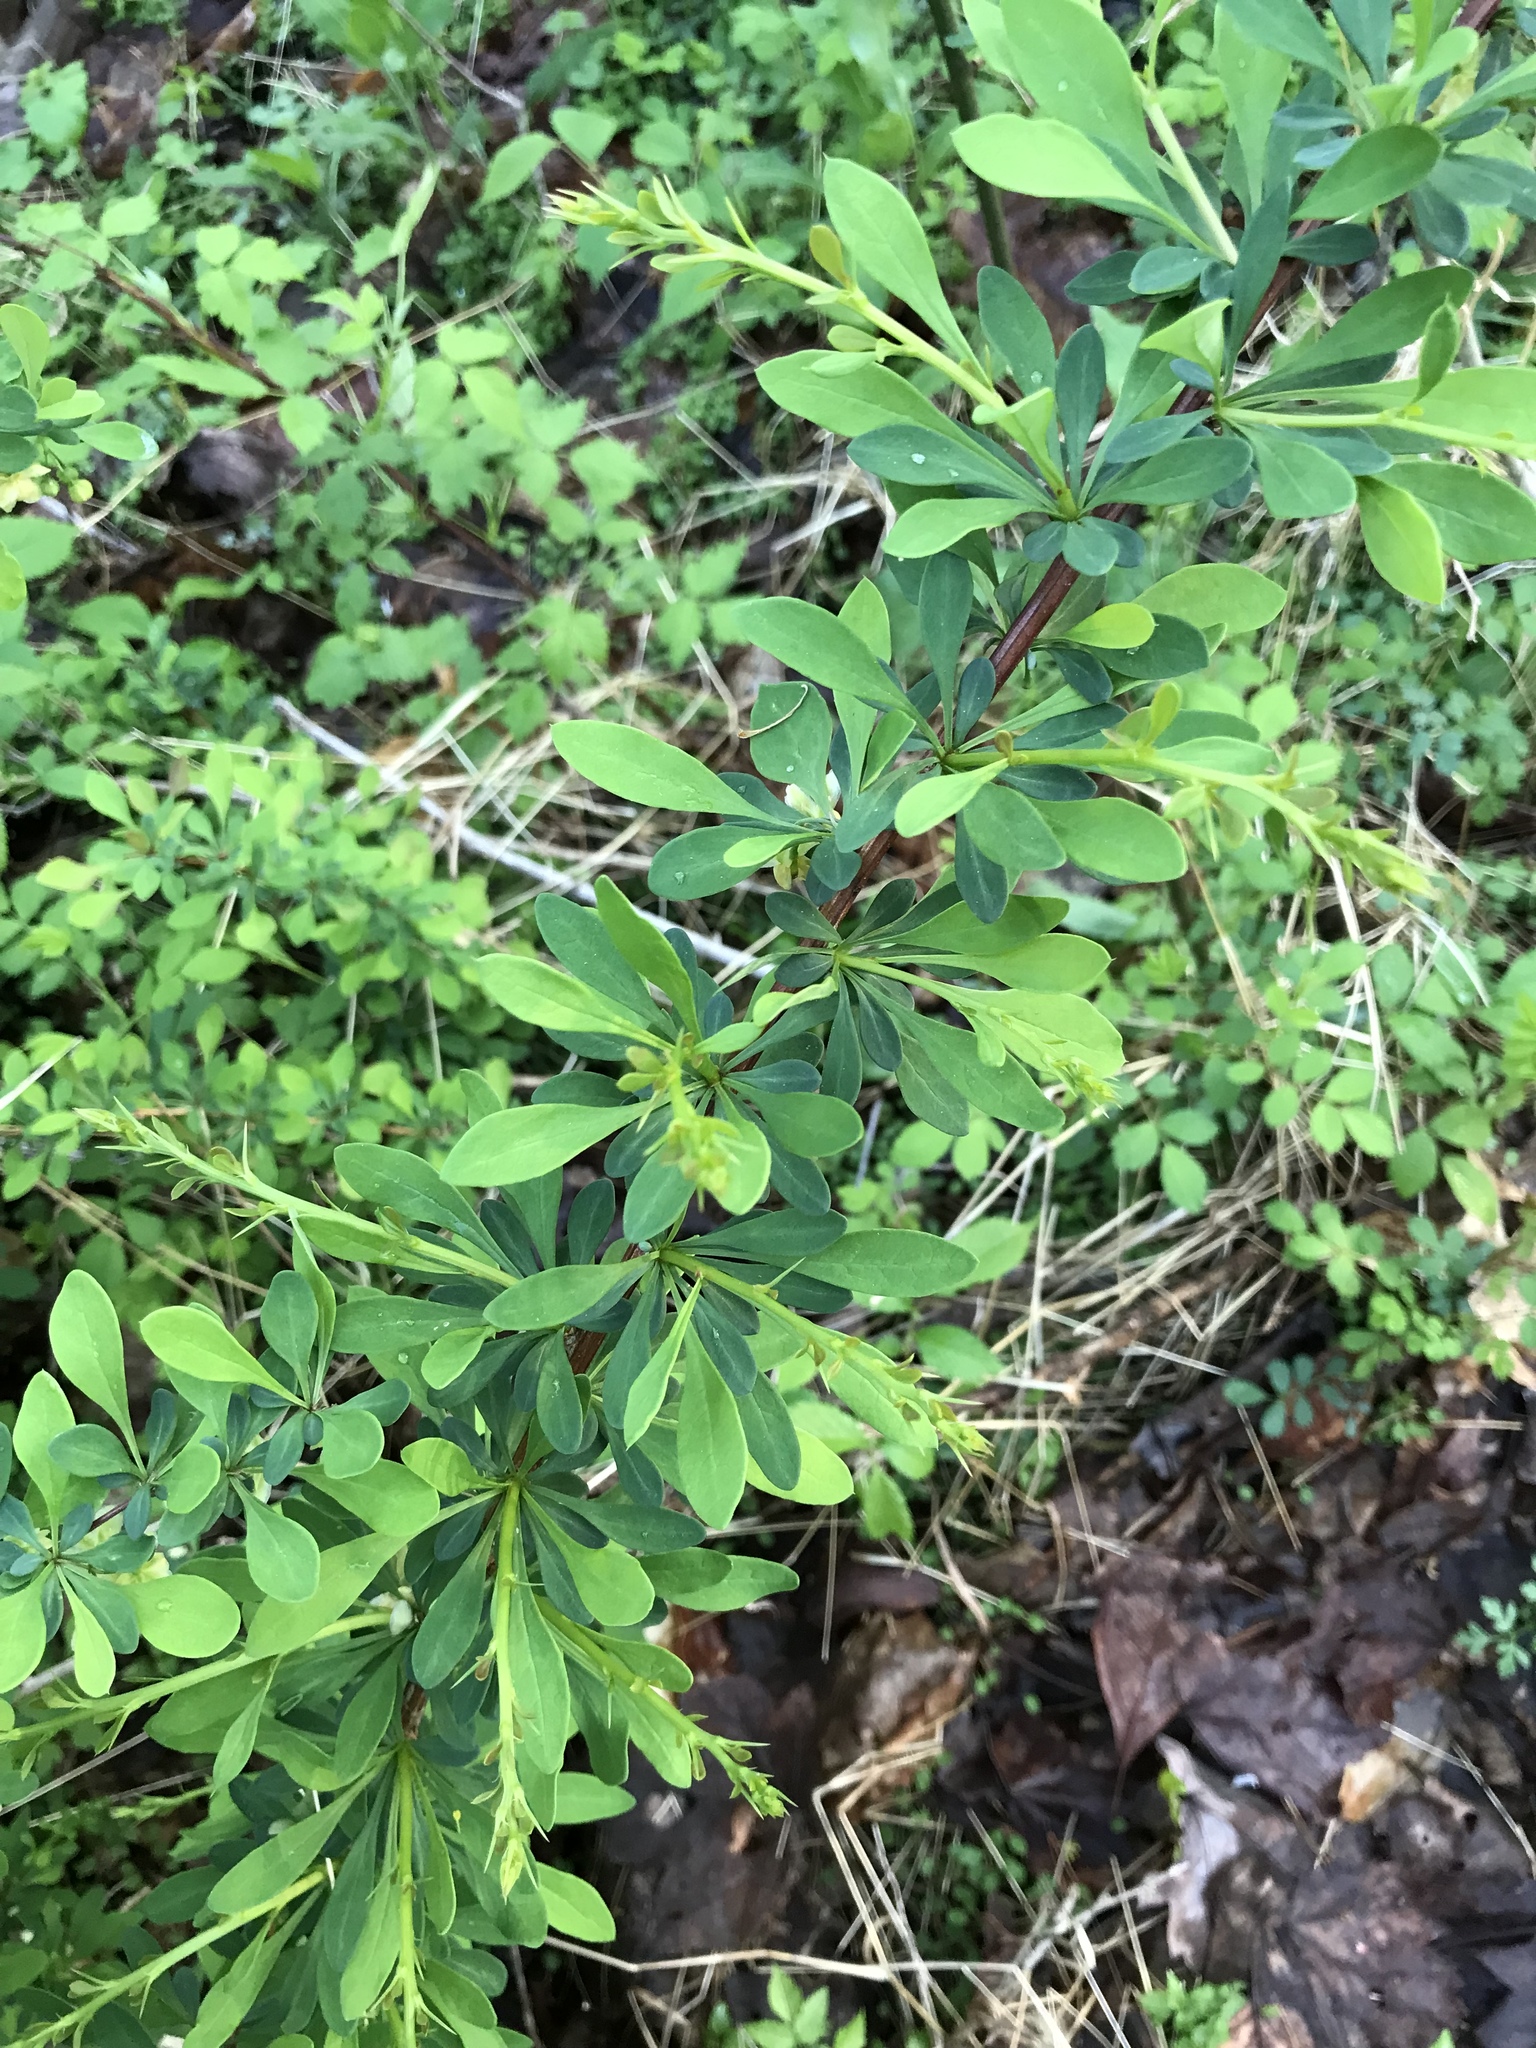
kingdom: Plantae
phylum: Tracheophyta
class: Magnoliopsida
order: Ranunculales
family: Berberidaceae
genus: Berberis
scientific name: Berberis thunbergii
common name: Japanese barberry
